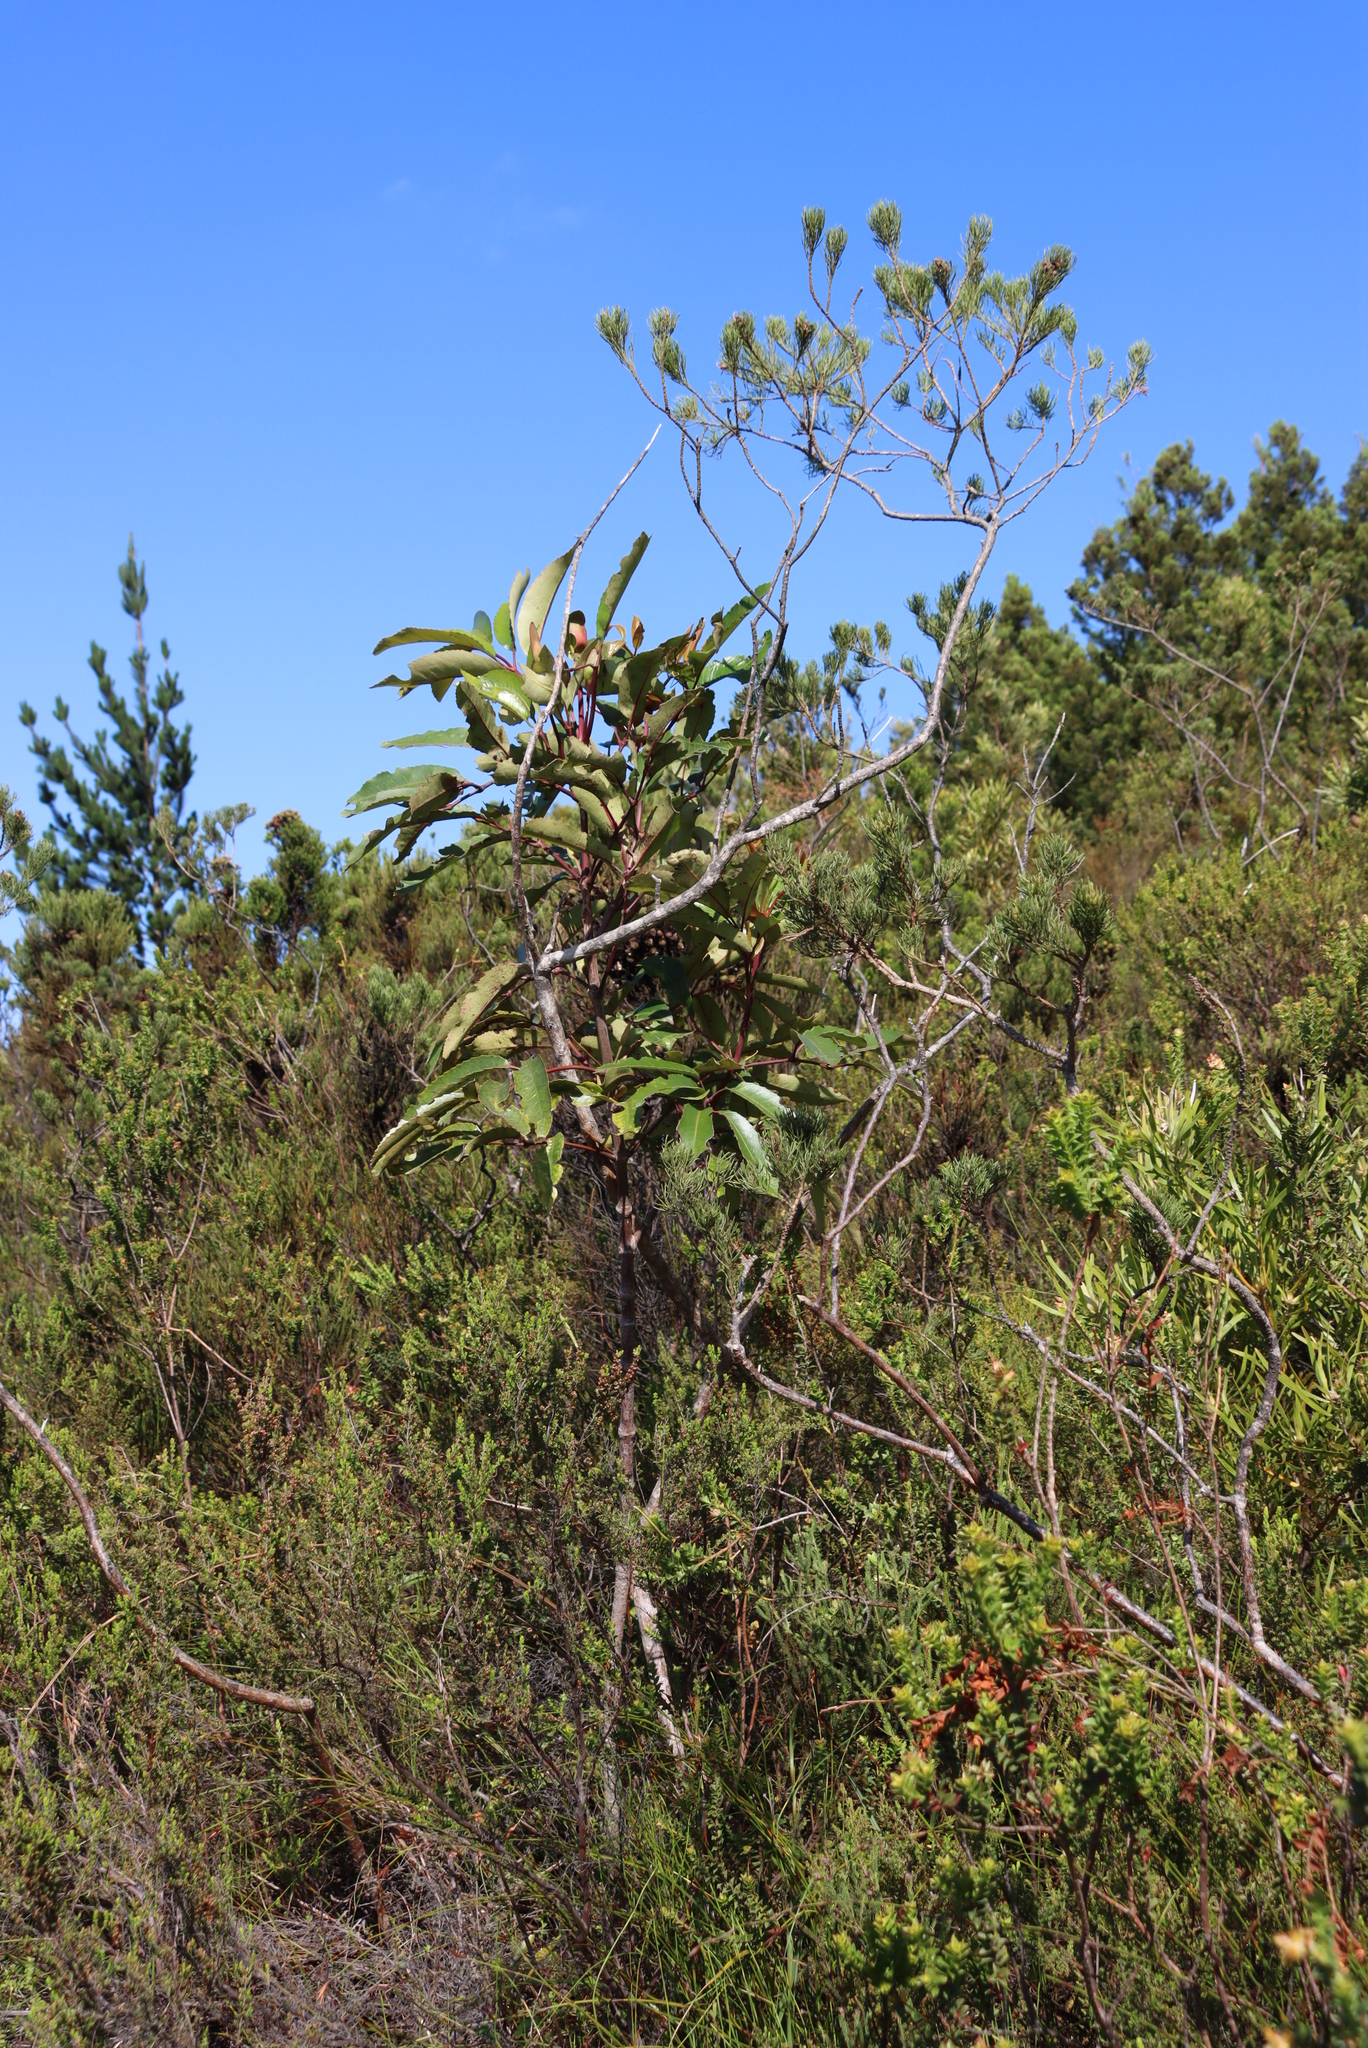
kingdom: Plantae
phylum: Tracheophyta
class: Magnoliopsida
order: Oxalidales
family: Cunoniaceae
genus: Cunonia
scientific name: Cunonia capensis
